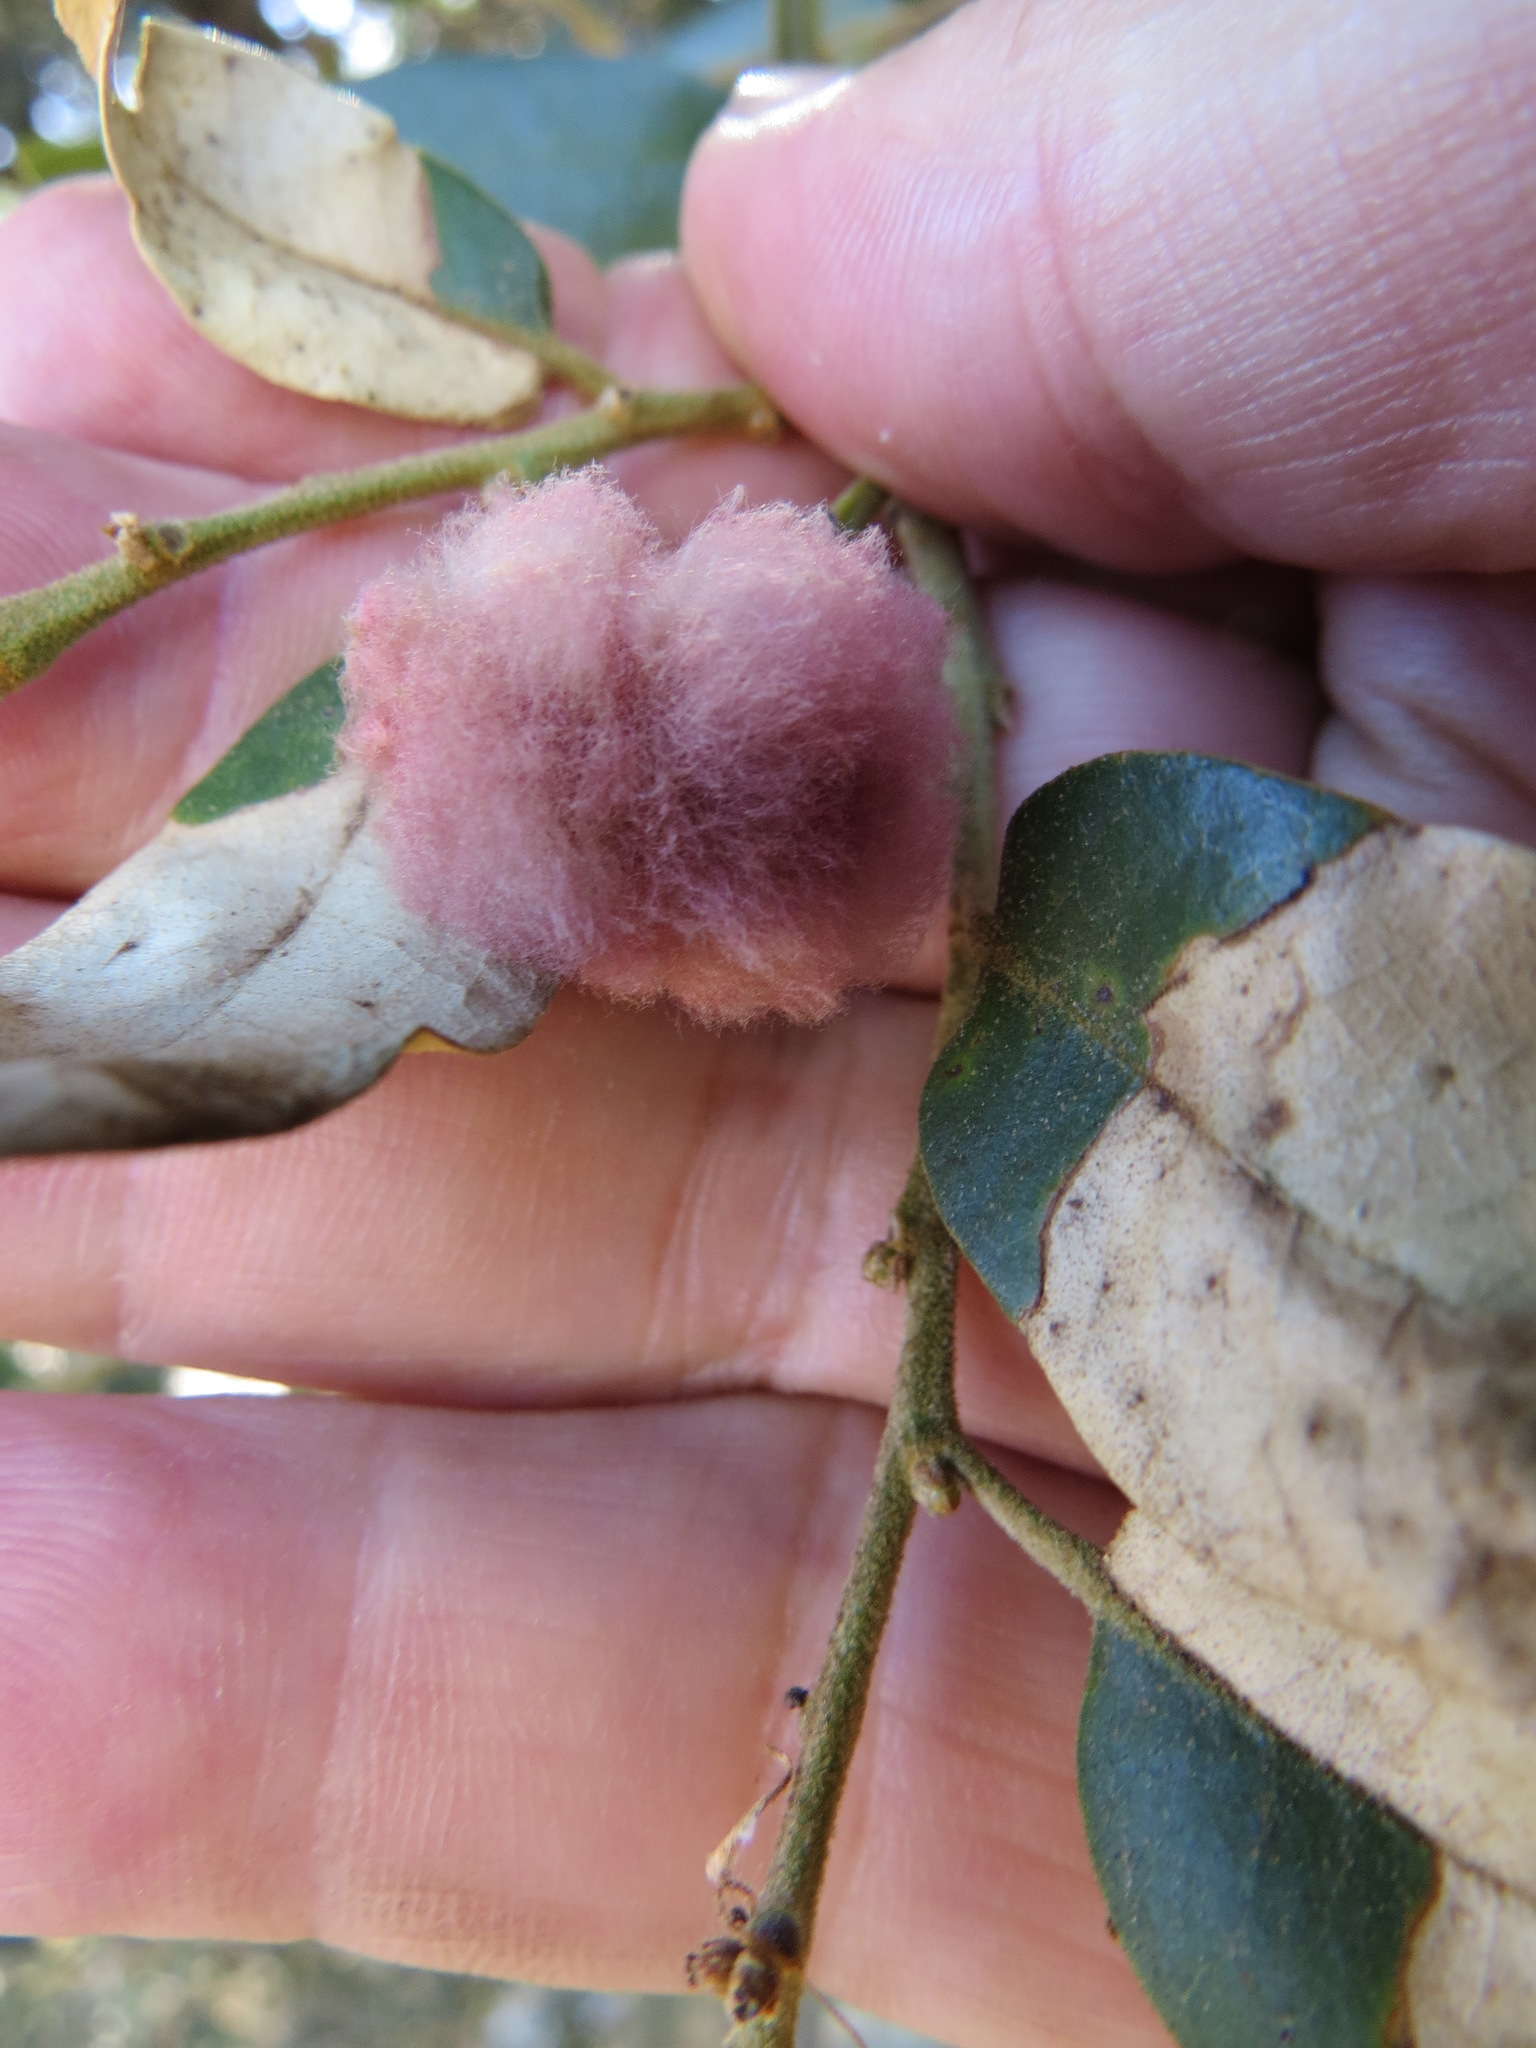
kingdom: Animalia
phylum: Arthropoda
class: Insecta
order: Hymenoptera
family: Cynipidae
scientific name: Cynipidae
